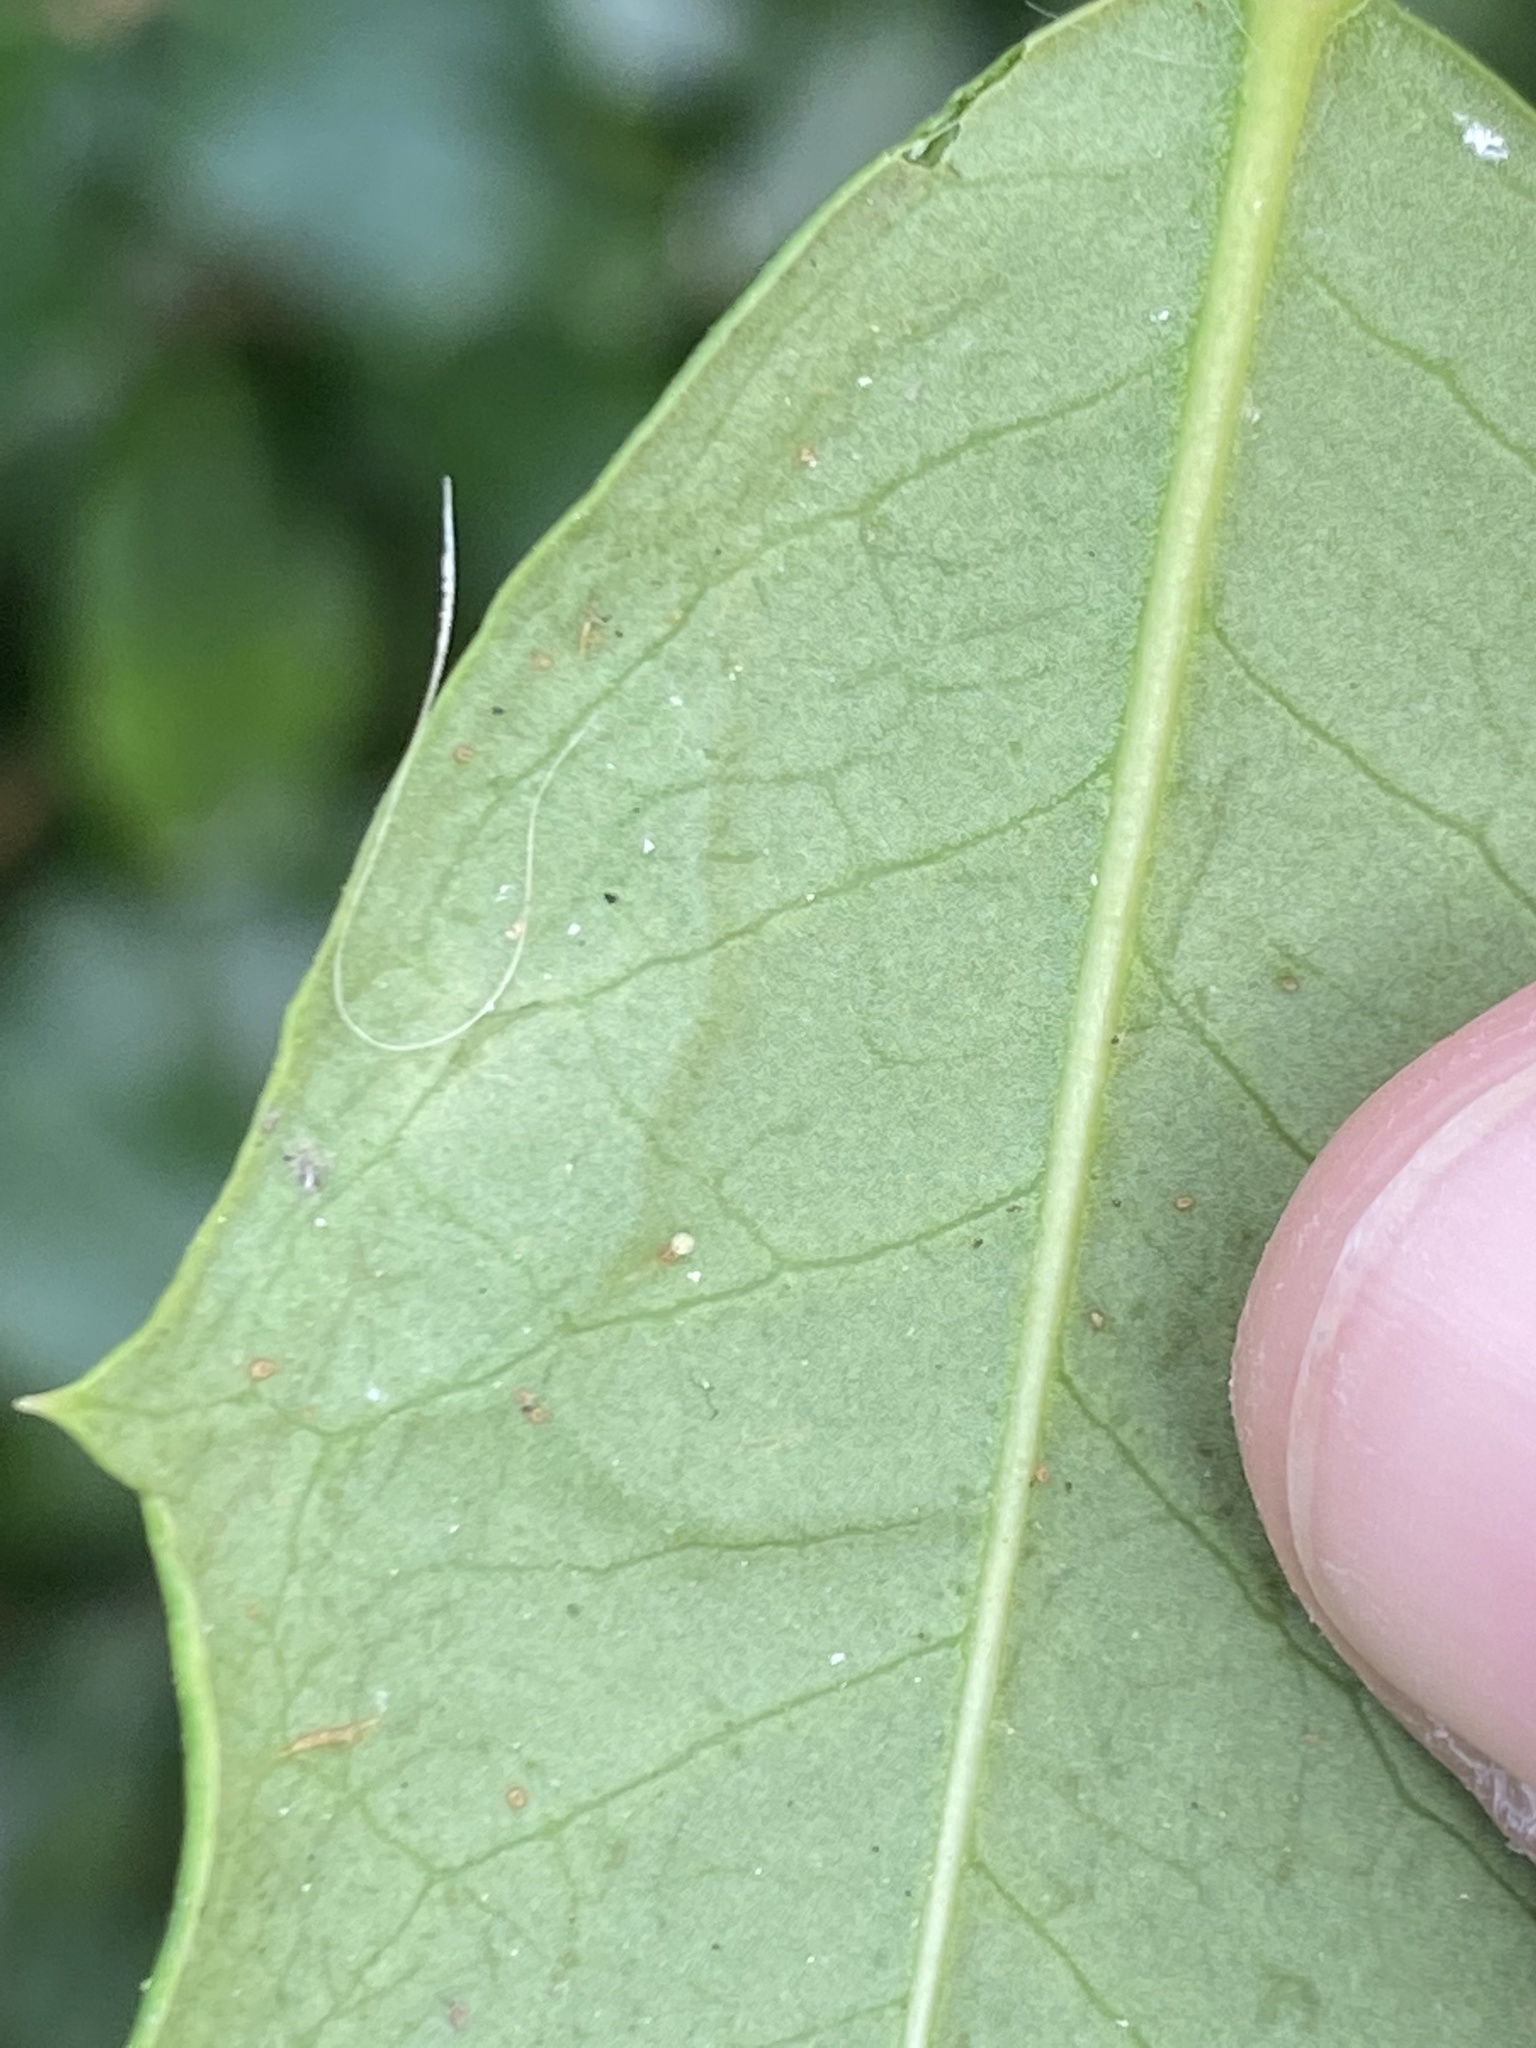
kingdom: Animalia
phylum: Arthropoda
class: Insecta
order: Diptera
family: Agromyzidae
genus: Phytomyza
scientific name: Phytomyza opacae
